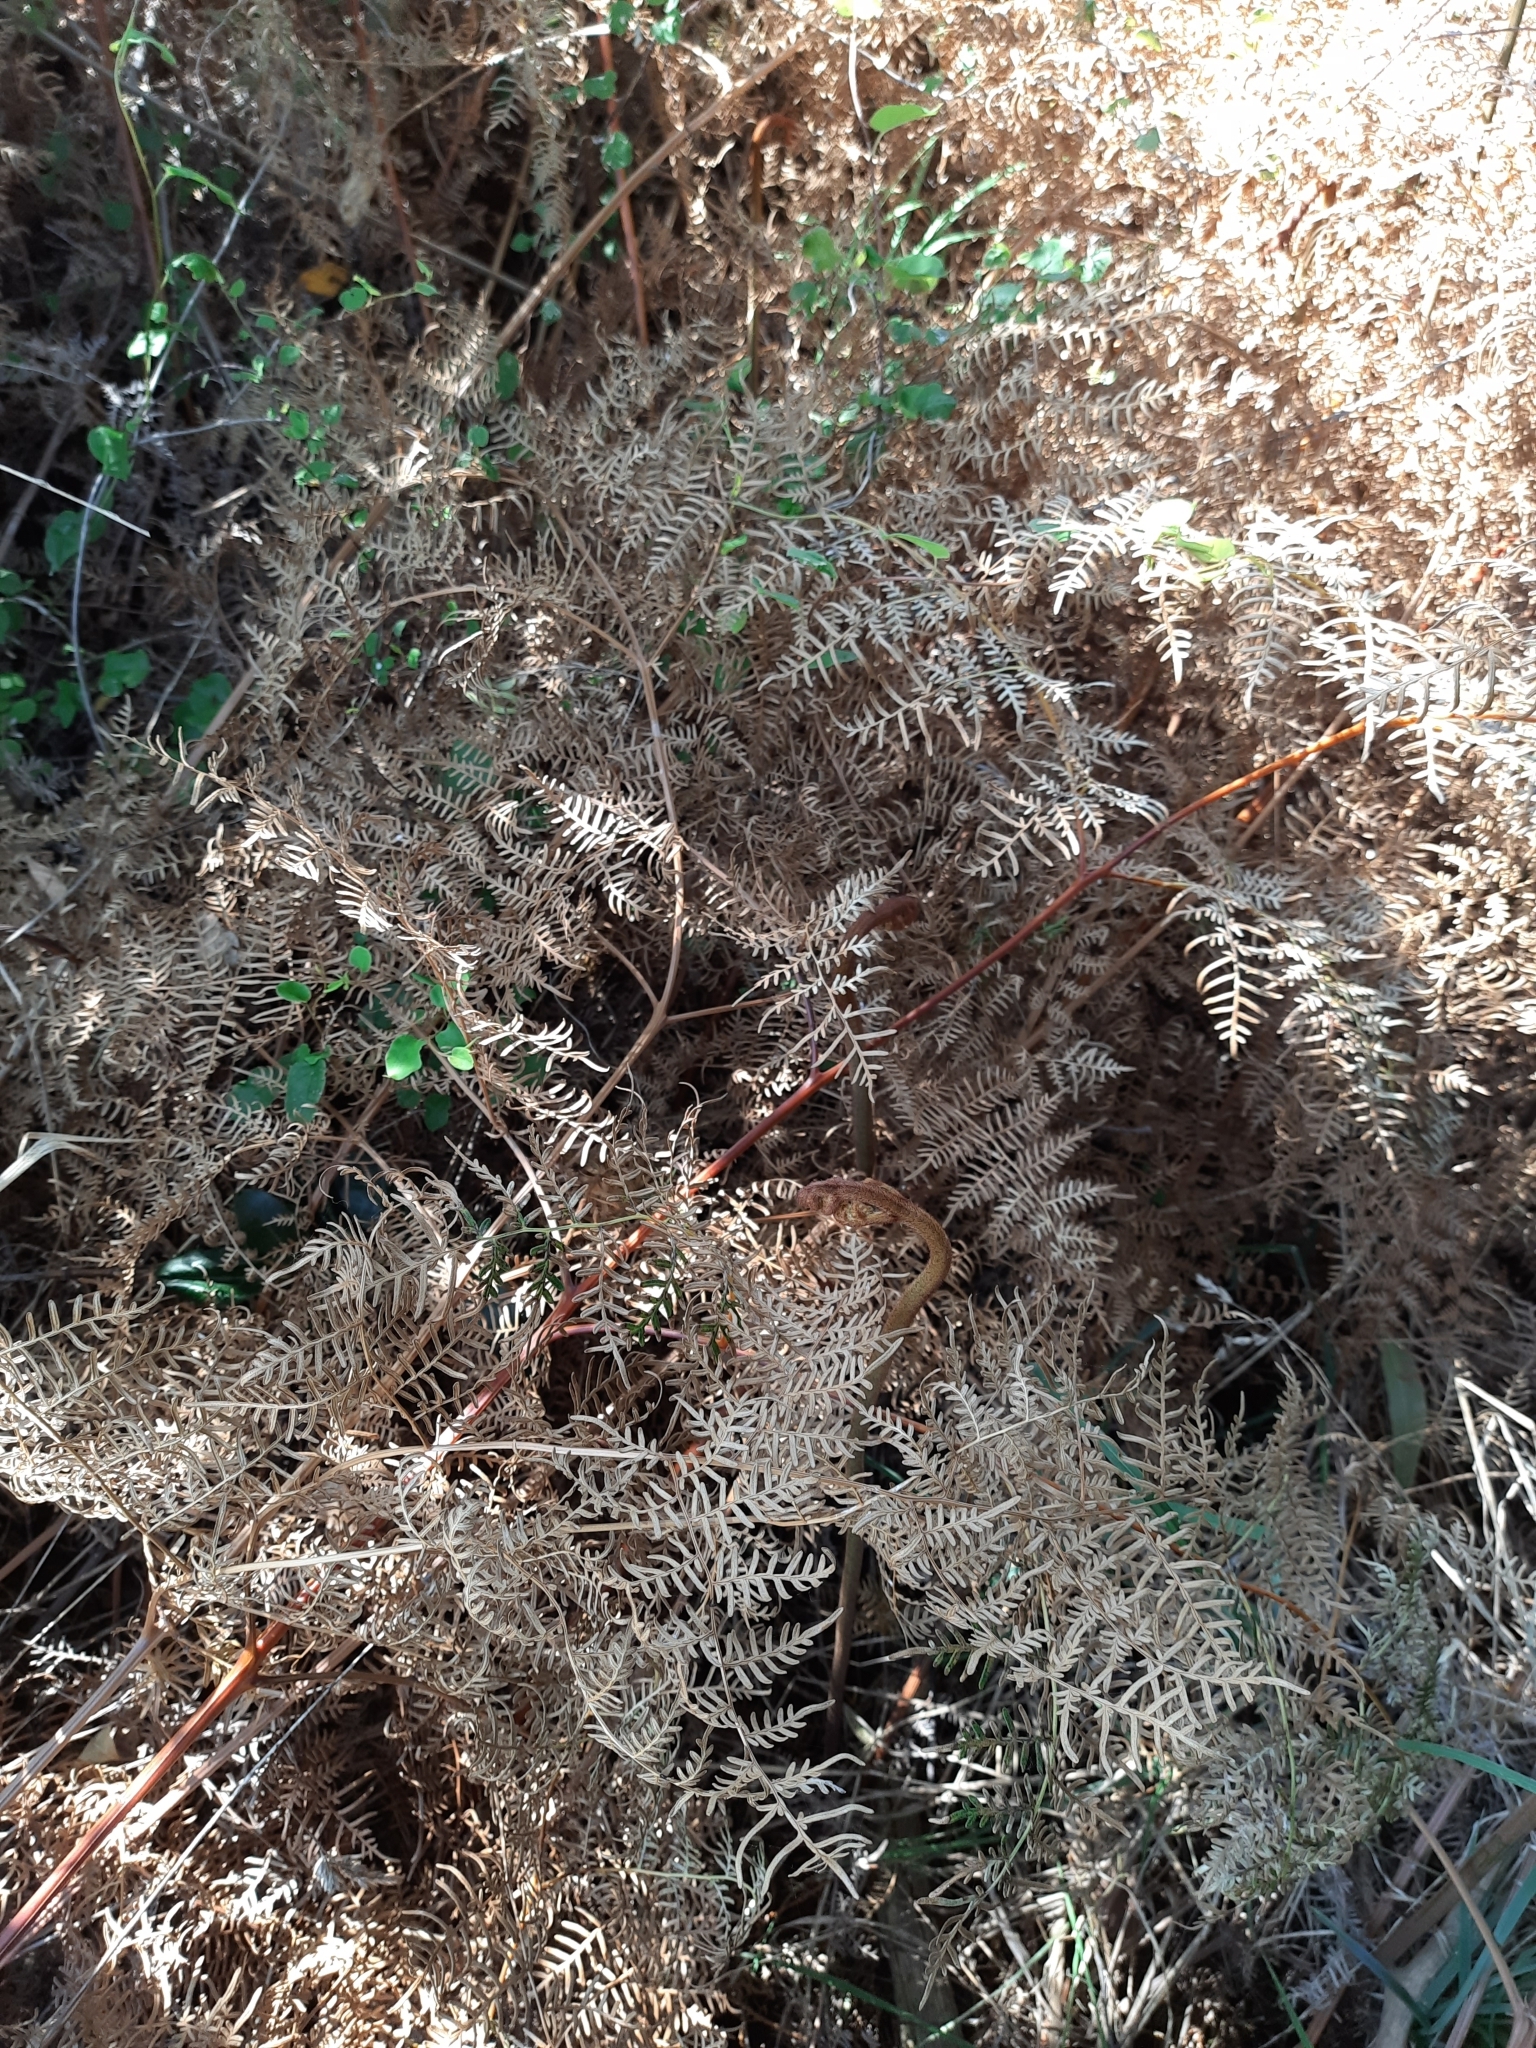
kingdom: Plantae
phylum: Tracheophyta
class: Polypodiopsida
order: Polypodiales
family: Dennstaedtiaceae
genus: Pteridium
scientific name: Pteridium esculentum
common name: Bracken fern
